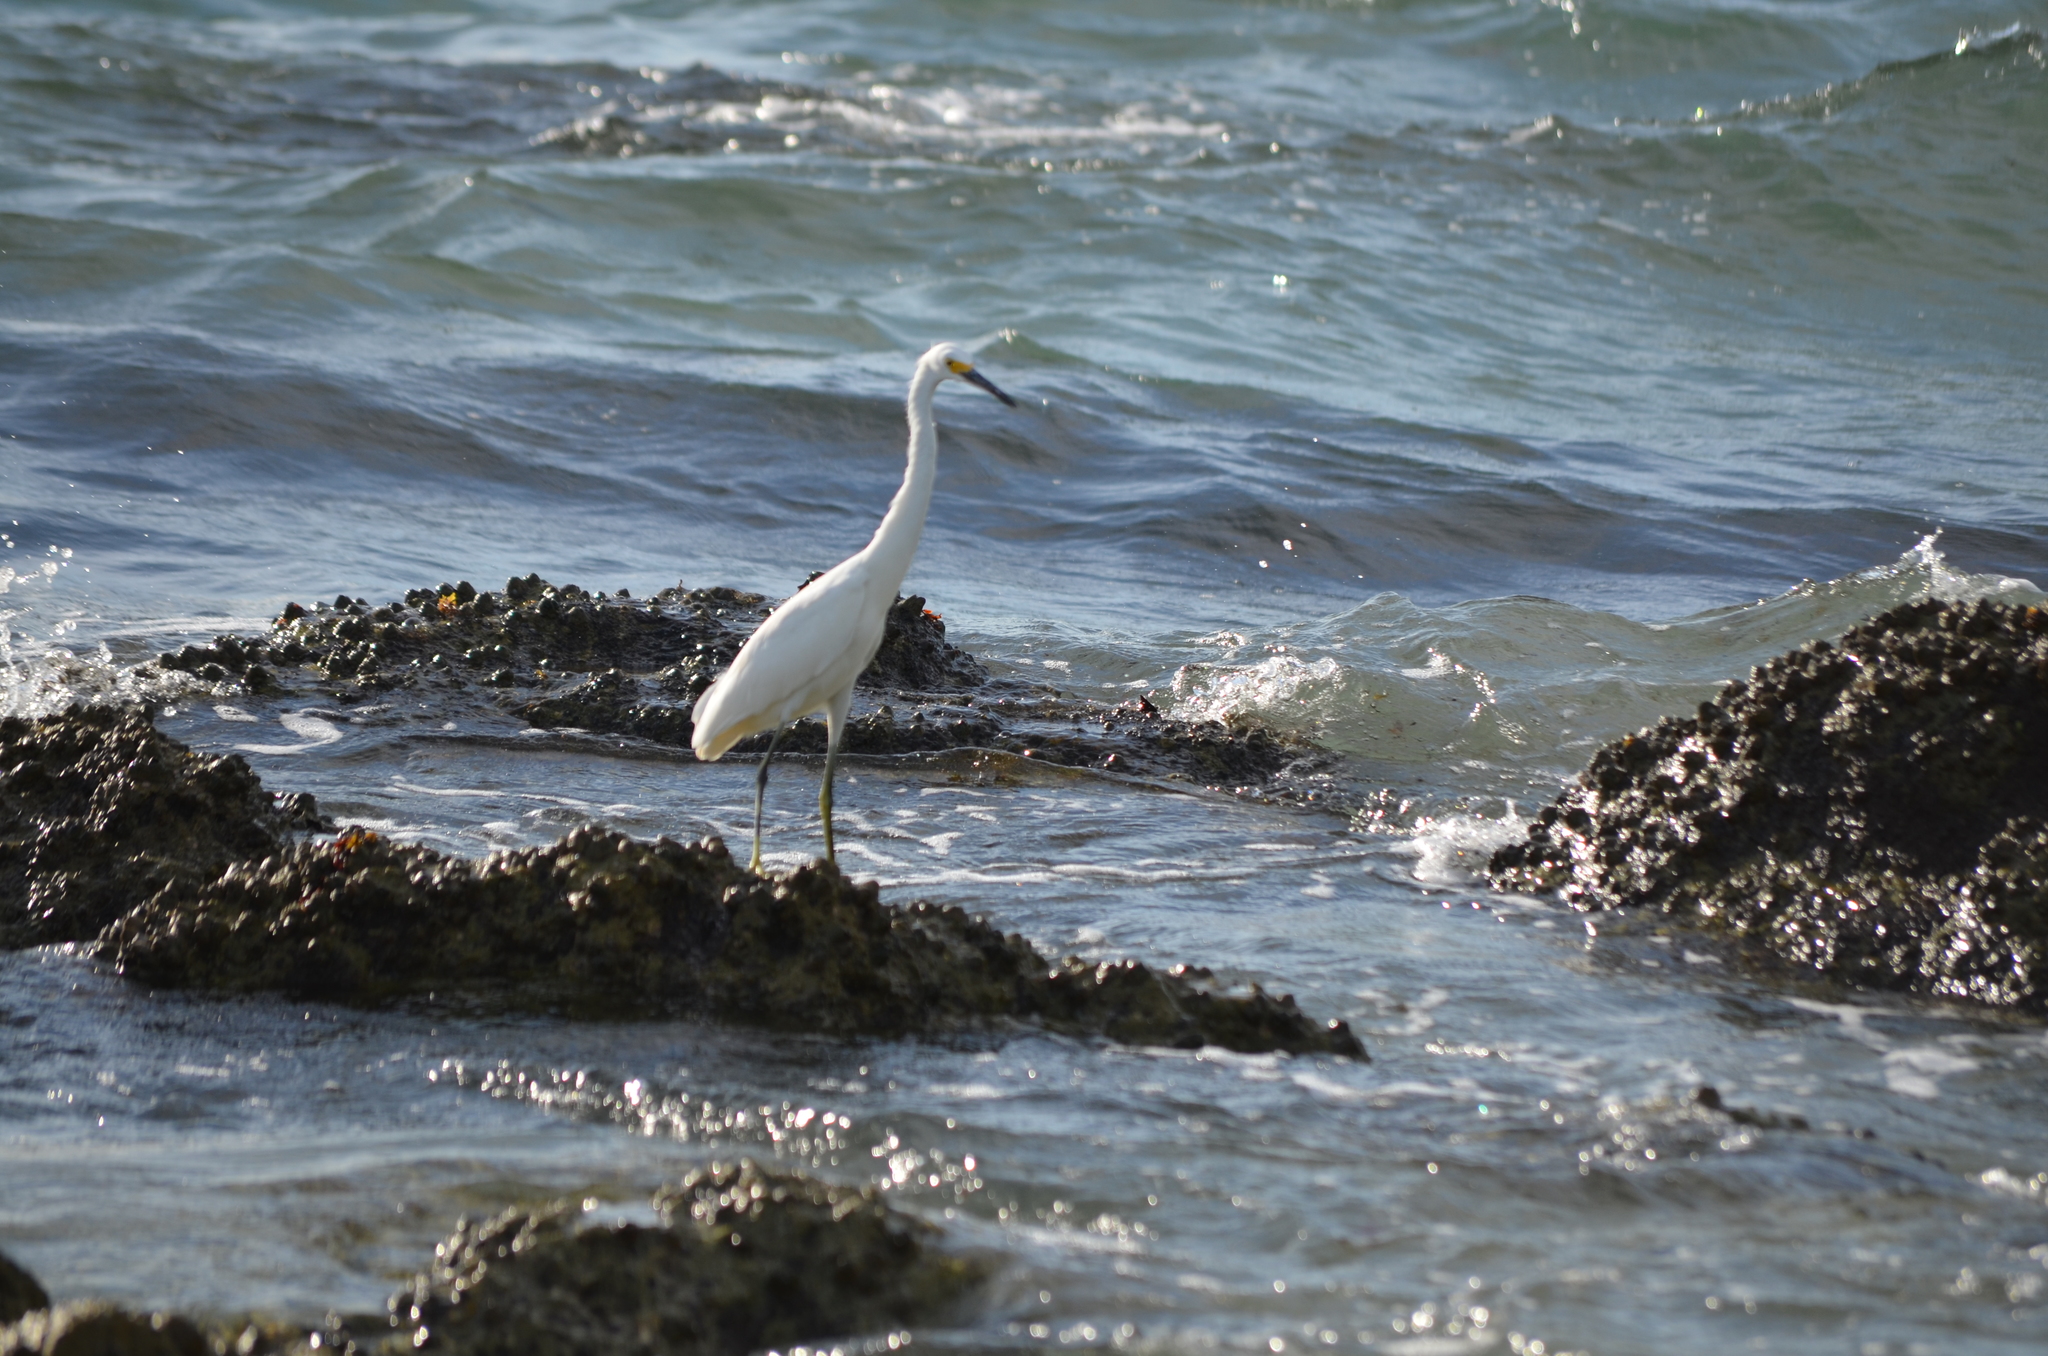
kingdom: Animalia
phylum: Chordata
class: Aves
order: Pelecaniformes
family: Ardeidae
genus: Egretta
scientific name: Egretta thula
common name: Snowy egret
